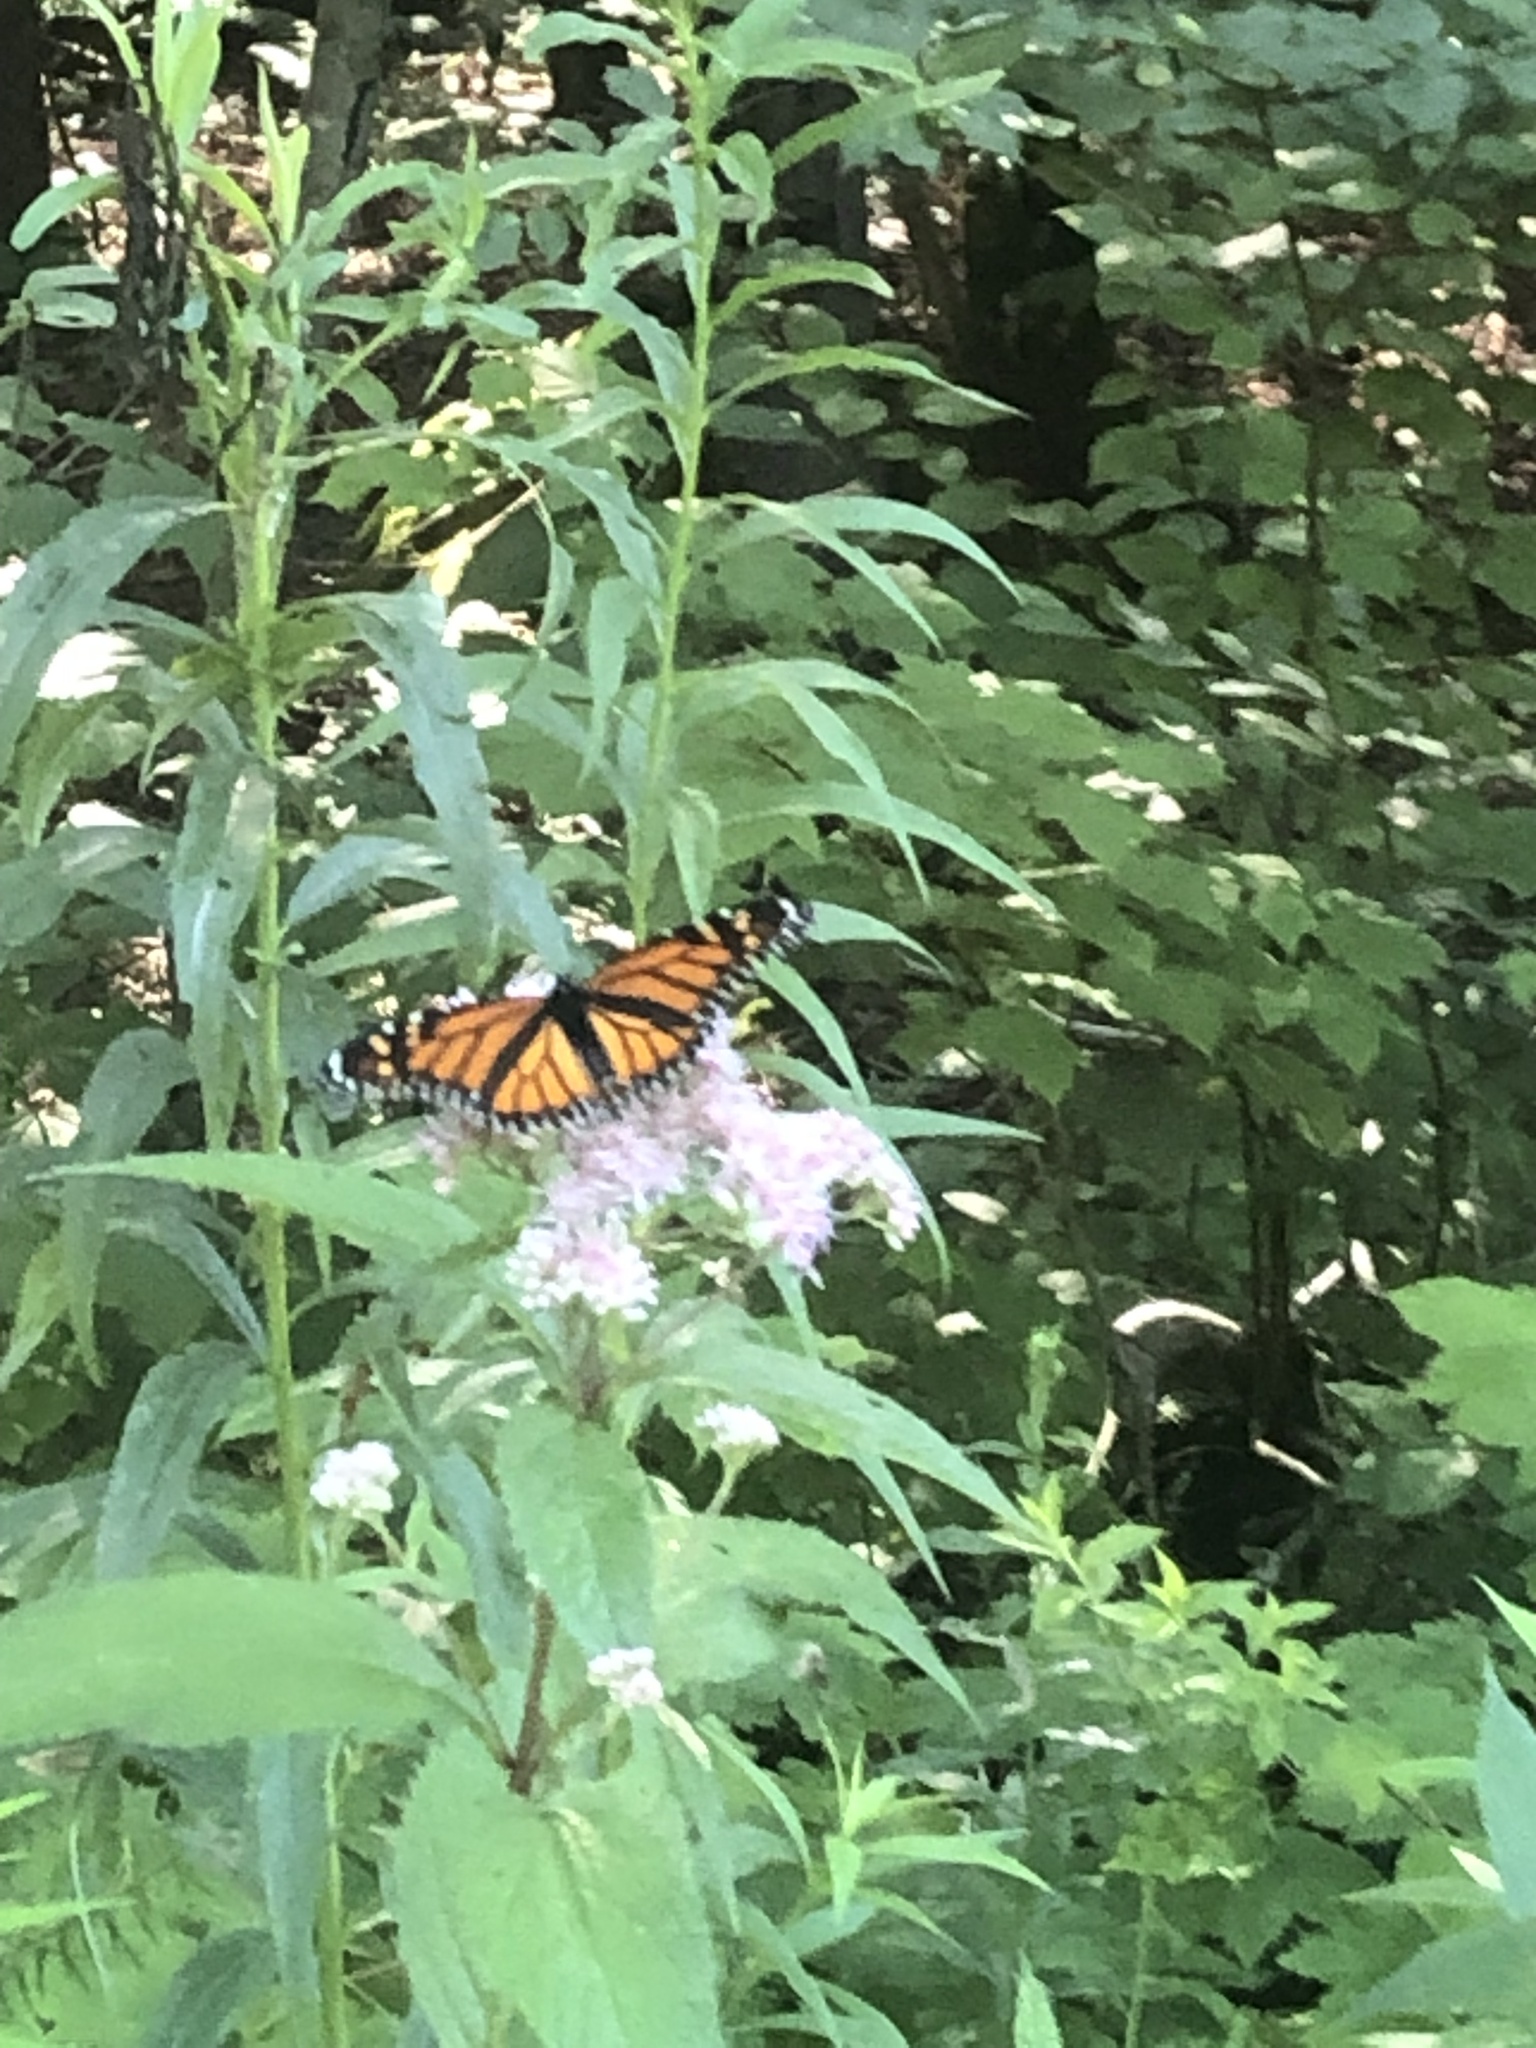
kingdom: Animalia
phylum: Arthropoda
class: Insecta
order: Lepidoptera
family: Nymphalidae
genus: Danaus
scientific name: Danaus plexippus
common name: Monarch
